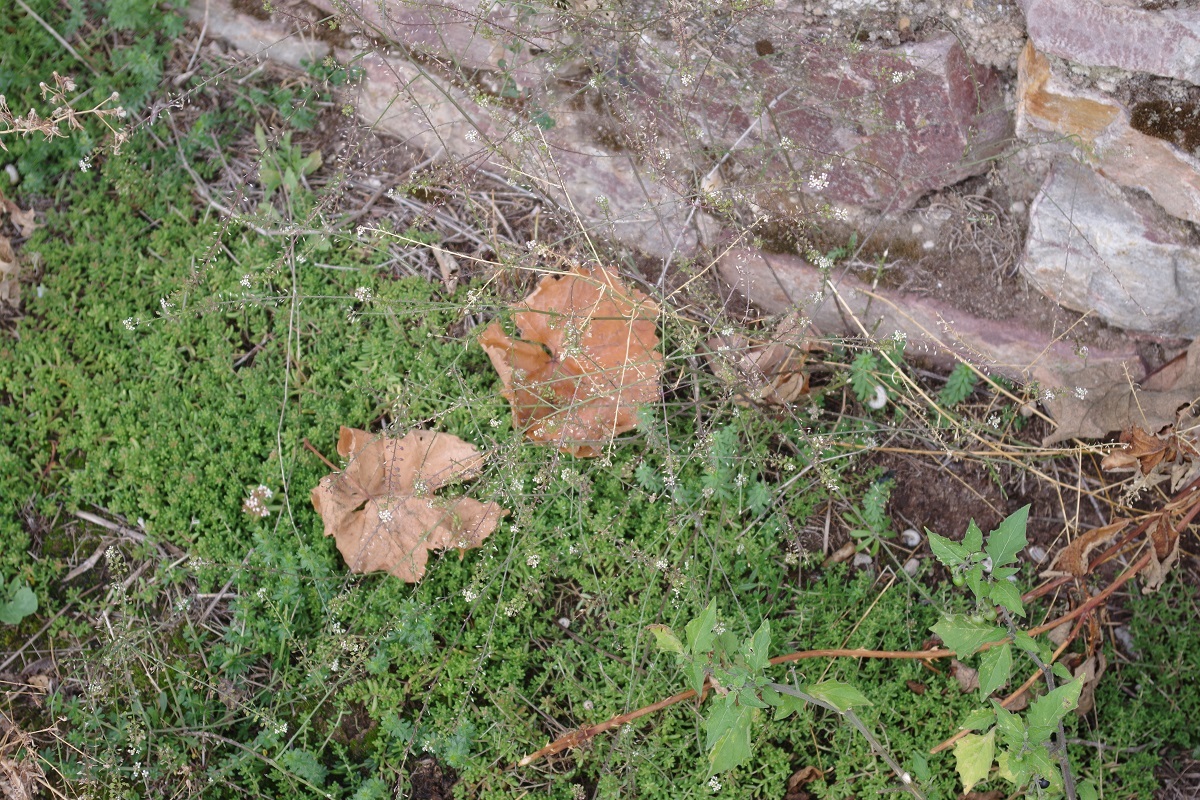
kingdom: Plantae
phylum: Tracheophyta
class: Magnoliopsida
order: Brassicales
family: Brassicaceae
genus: Lepidium
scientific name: Lepidium graminifolium
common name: Tall pepperwort
